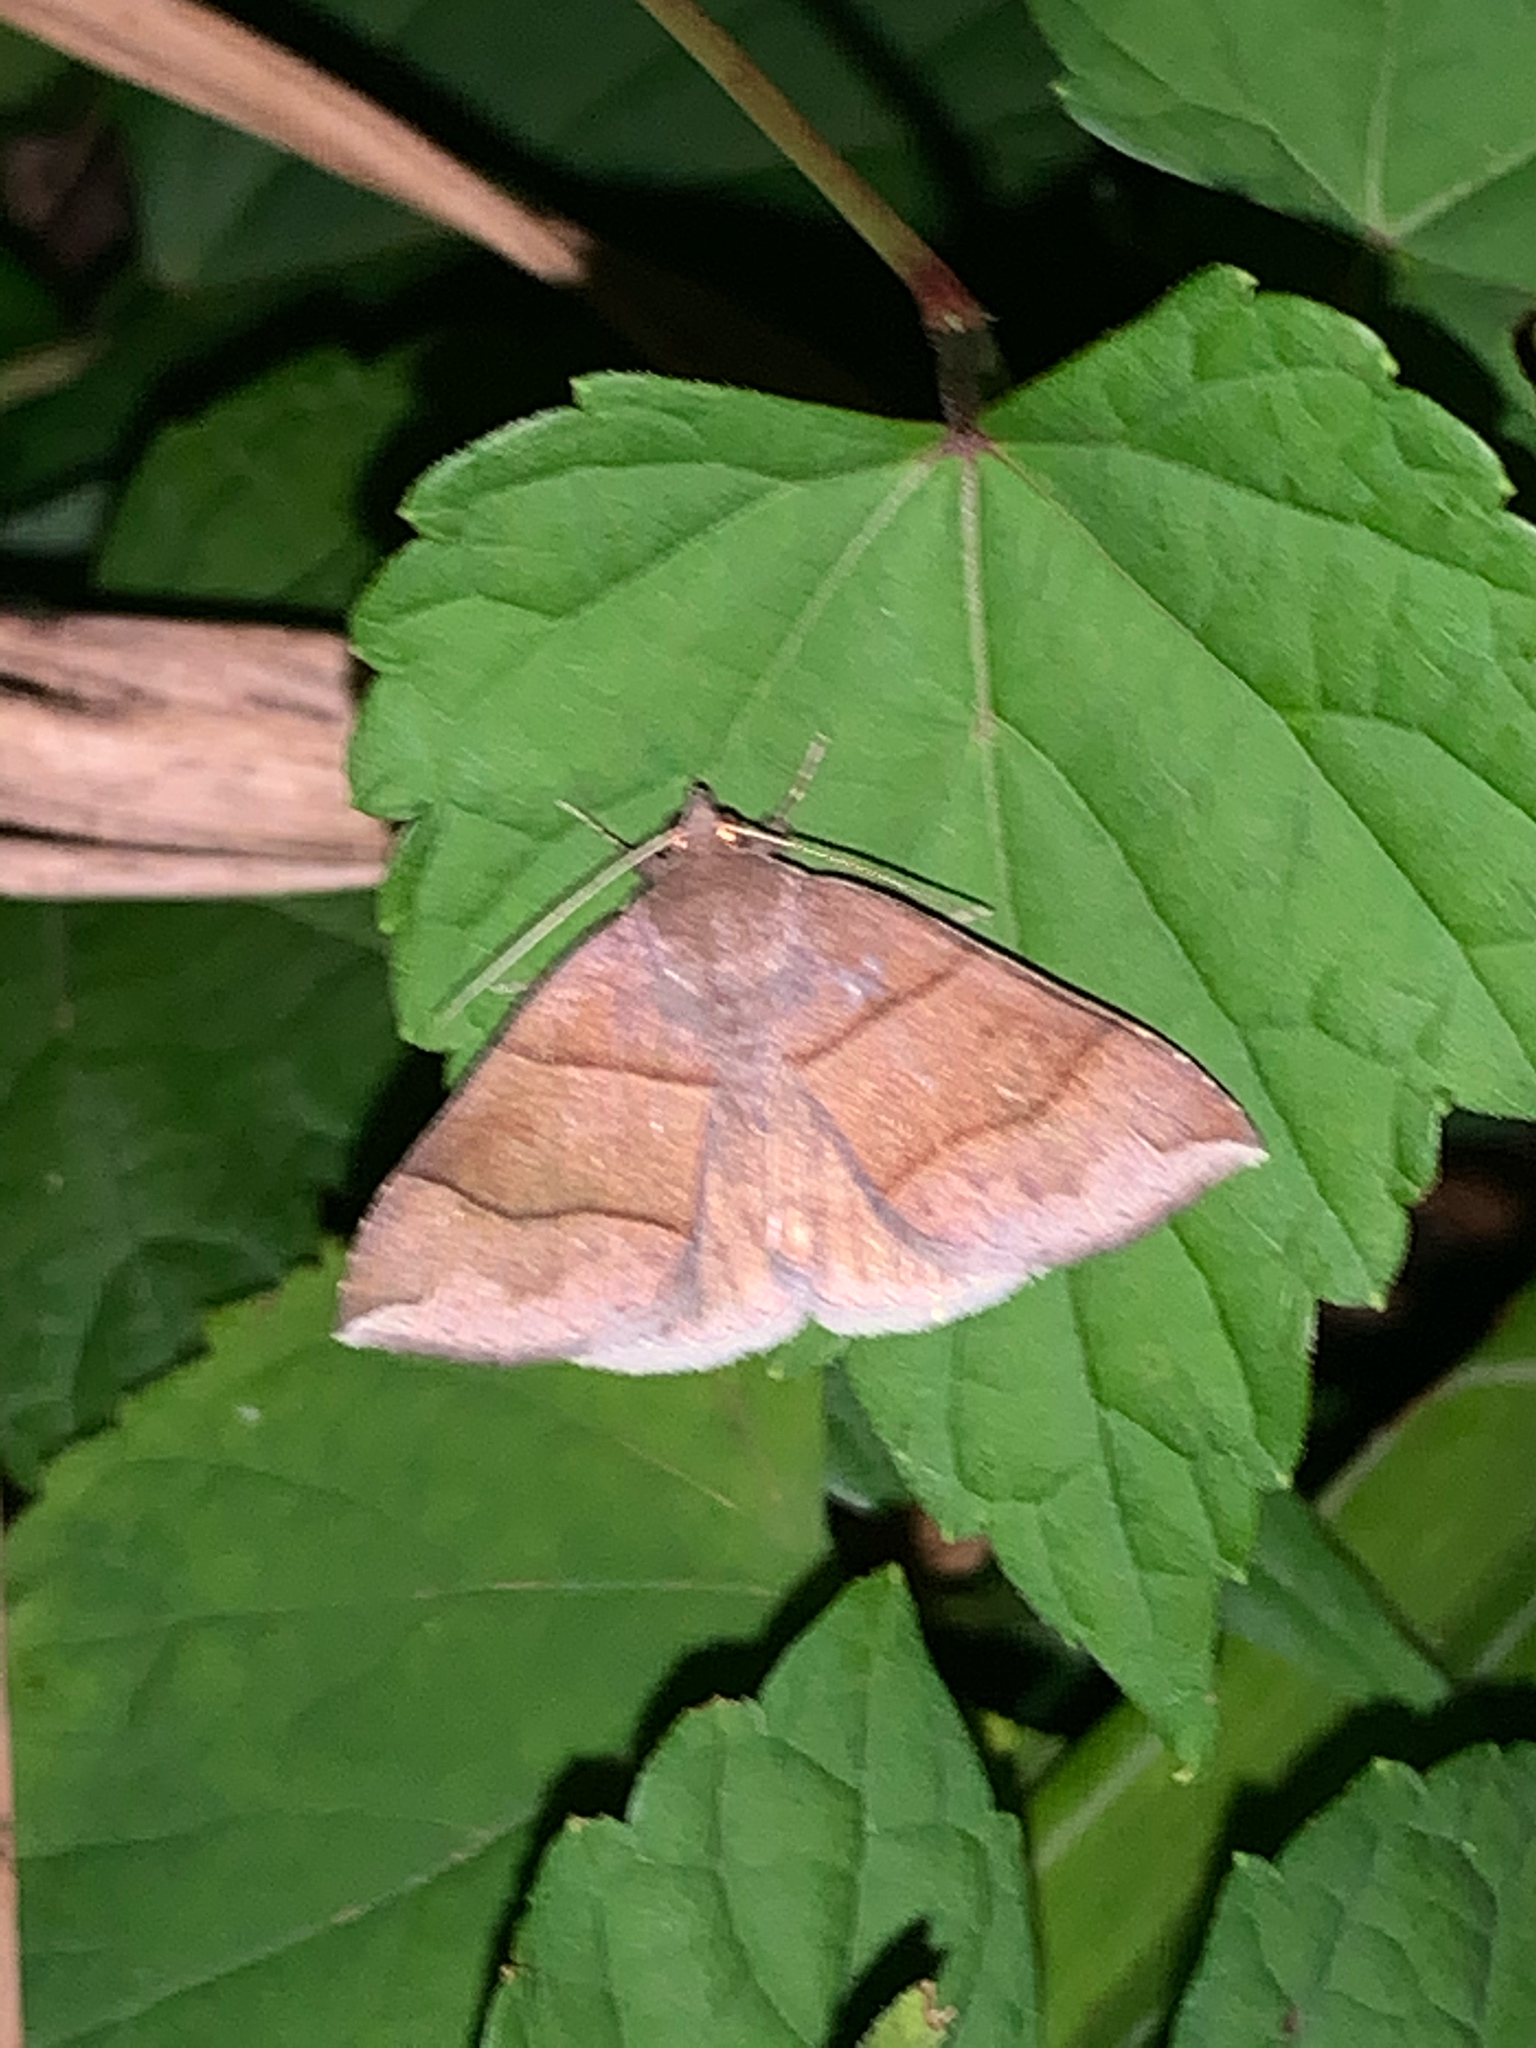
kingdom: Animalia
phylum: Arthropoda
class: Insecta
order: Lepidoptera
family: Erebidae
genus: Parallelia
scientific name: Parallelia bistriaris
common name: Maple looper moth
